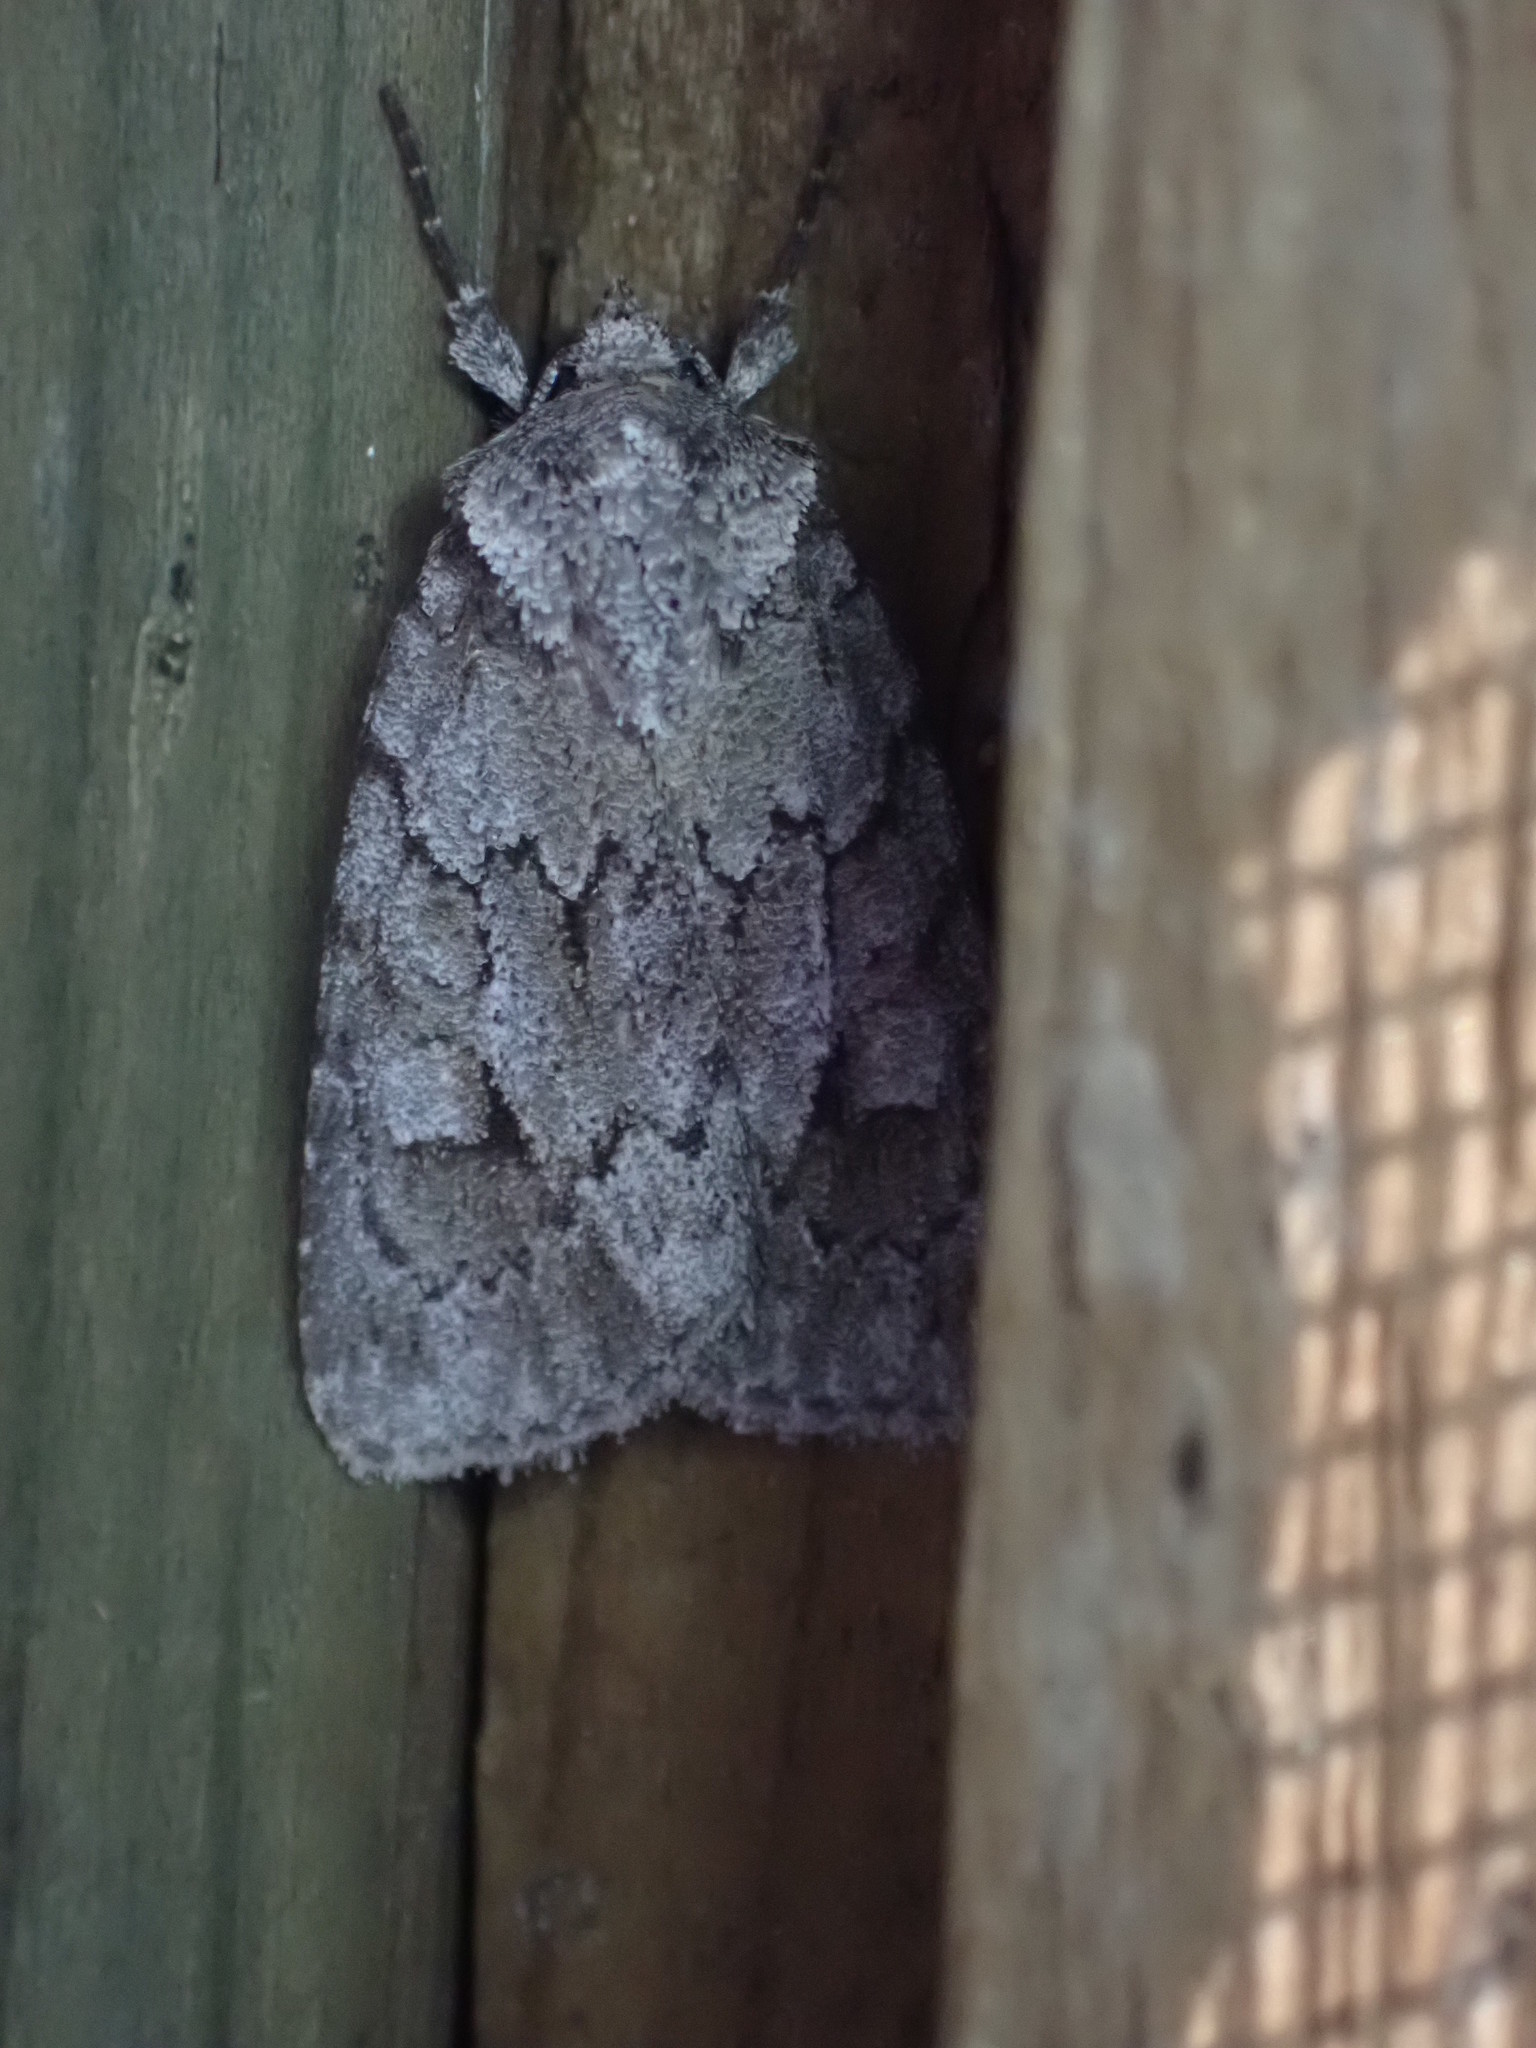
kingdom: Animalia
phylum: Arthropoda
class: Insecta
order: Lepidoptera
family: Noctuidae
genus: Sympistis
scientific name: Sympistis dentata
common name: Blueberry sallow
